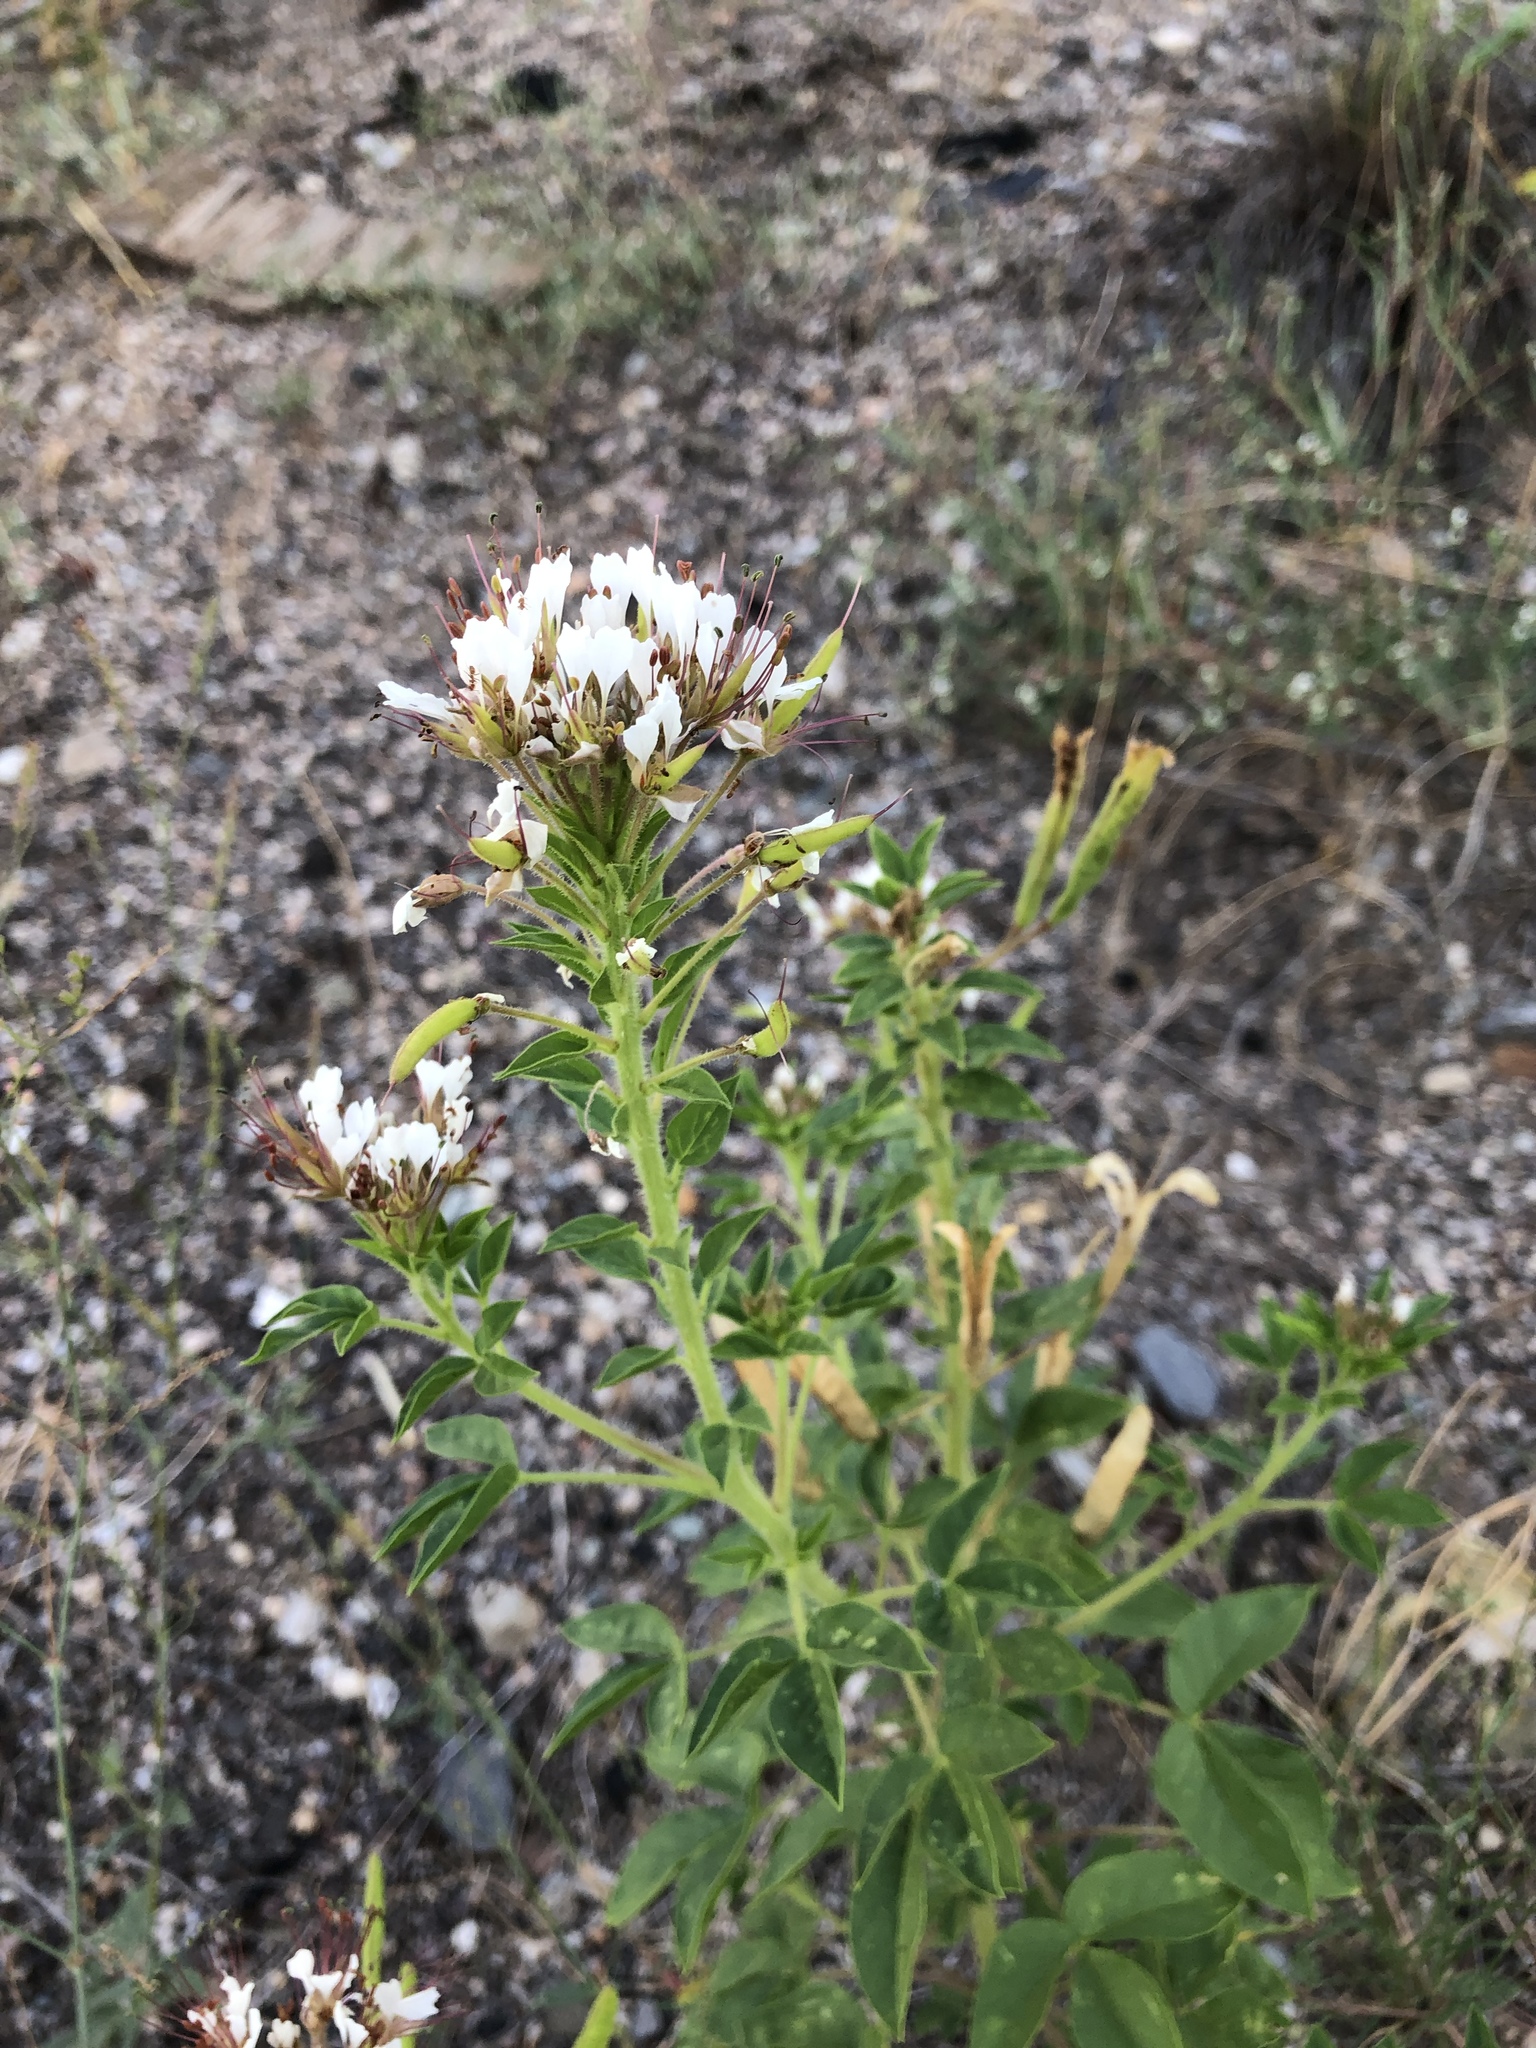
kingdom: Plantae
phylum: Tracheophyta
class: Magnoliopsida
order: Brassicales
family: Cleomaceae
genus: Polanisia
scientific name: Polanisia dodecandra
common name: Clammyweed
